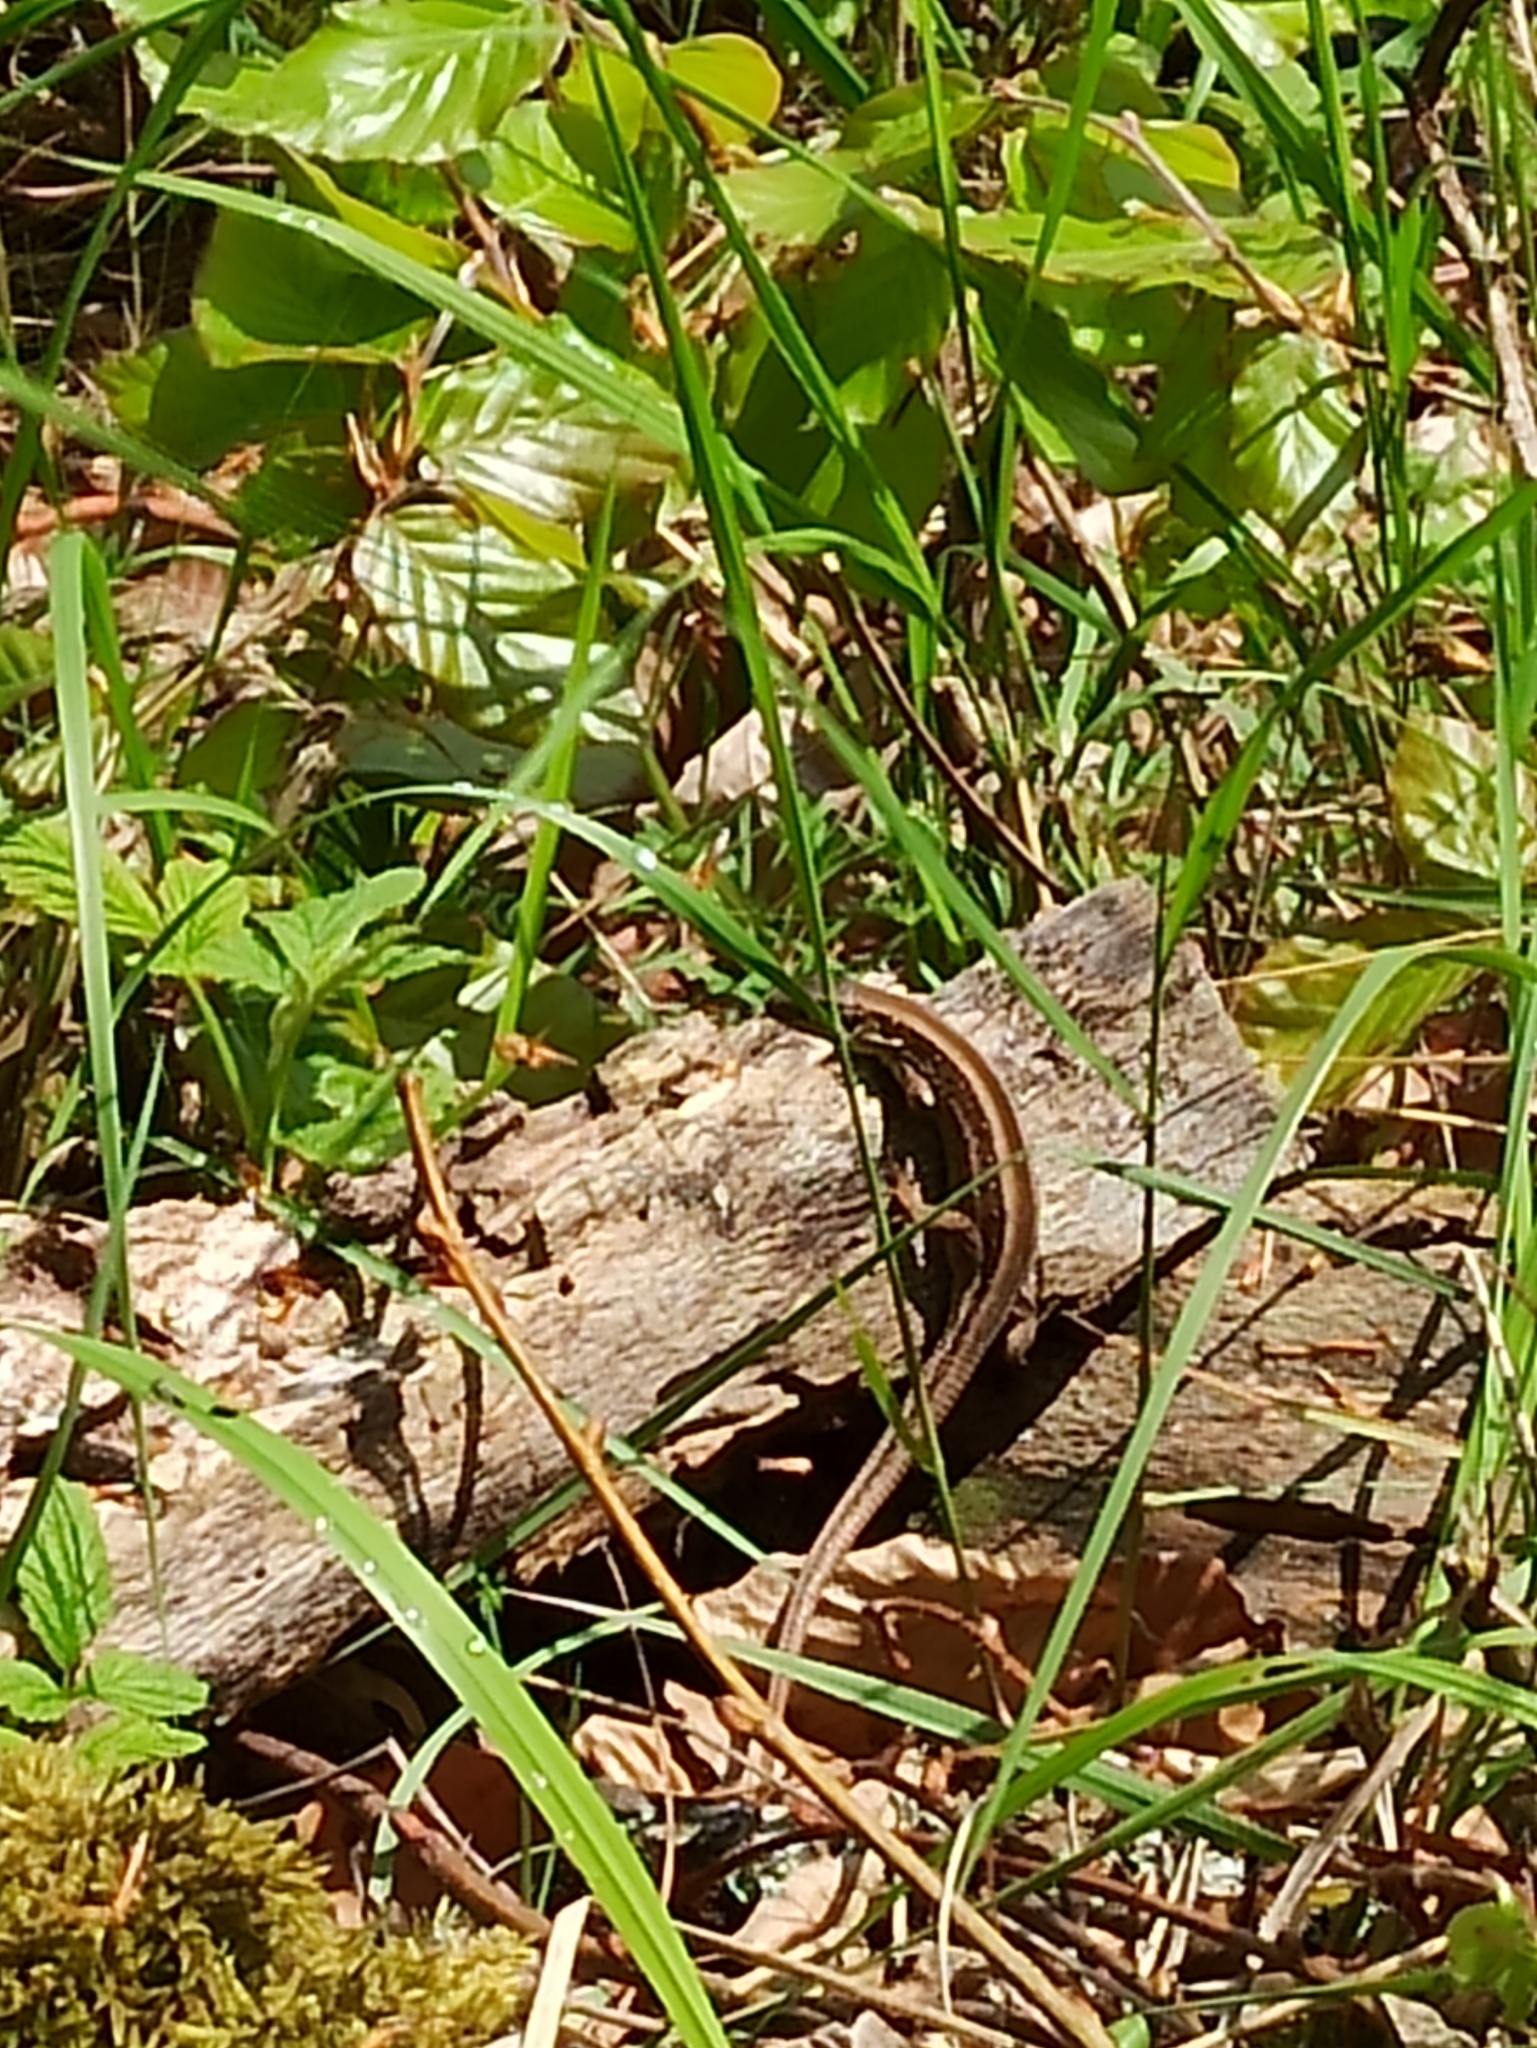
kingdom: Animalia
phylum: Chordata
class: Squamata
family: Lacertidae
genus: Lacerta
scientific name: Lacerta agilis
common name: Sand lizard
